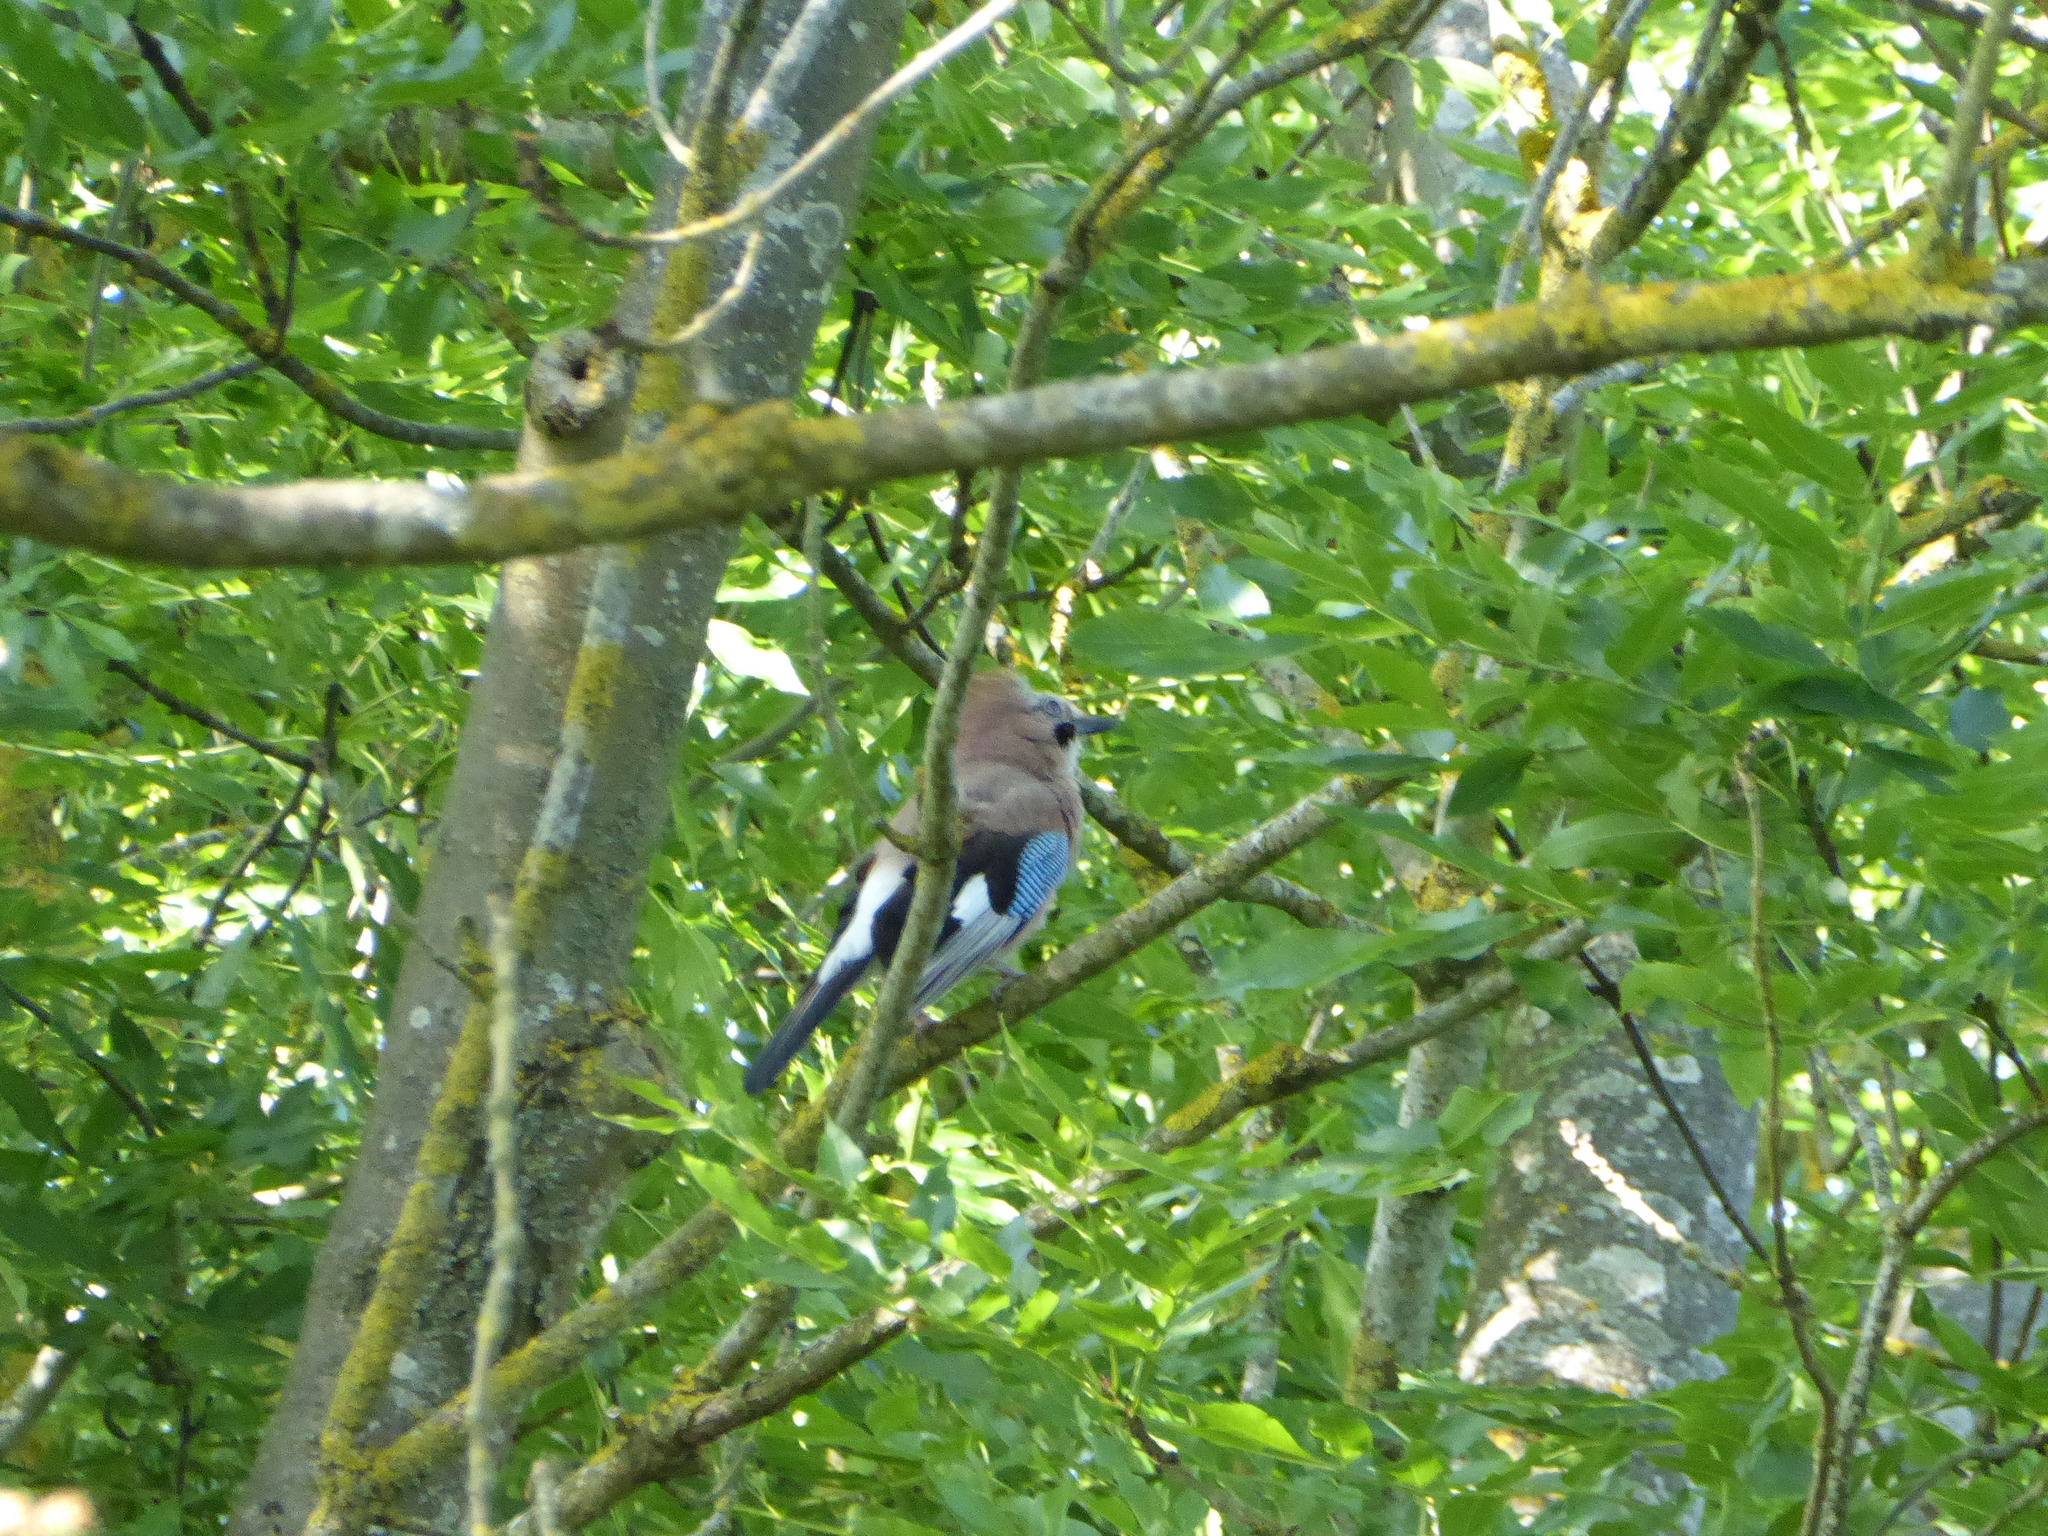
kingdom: Animalia
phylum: Chordata
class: Aves
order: Passeriformes
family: Corvidae
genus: Garrulus
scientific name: Garrulus glandarius
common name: Eurasian jay
